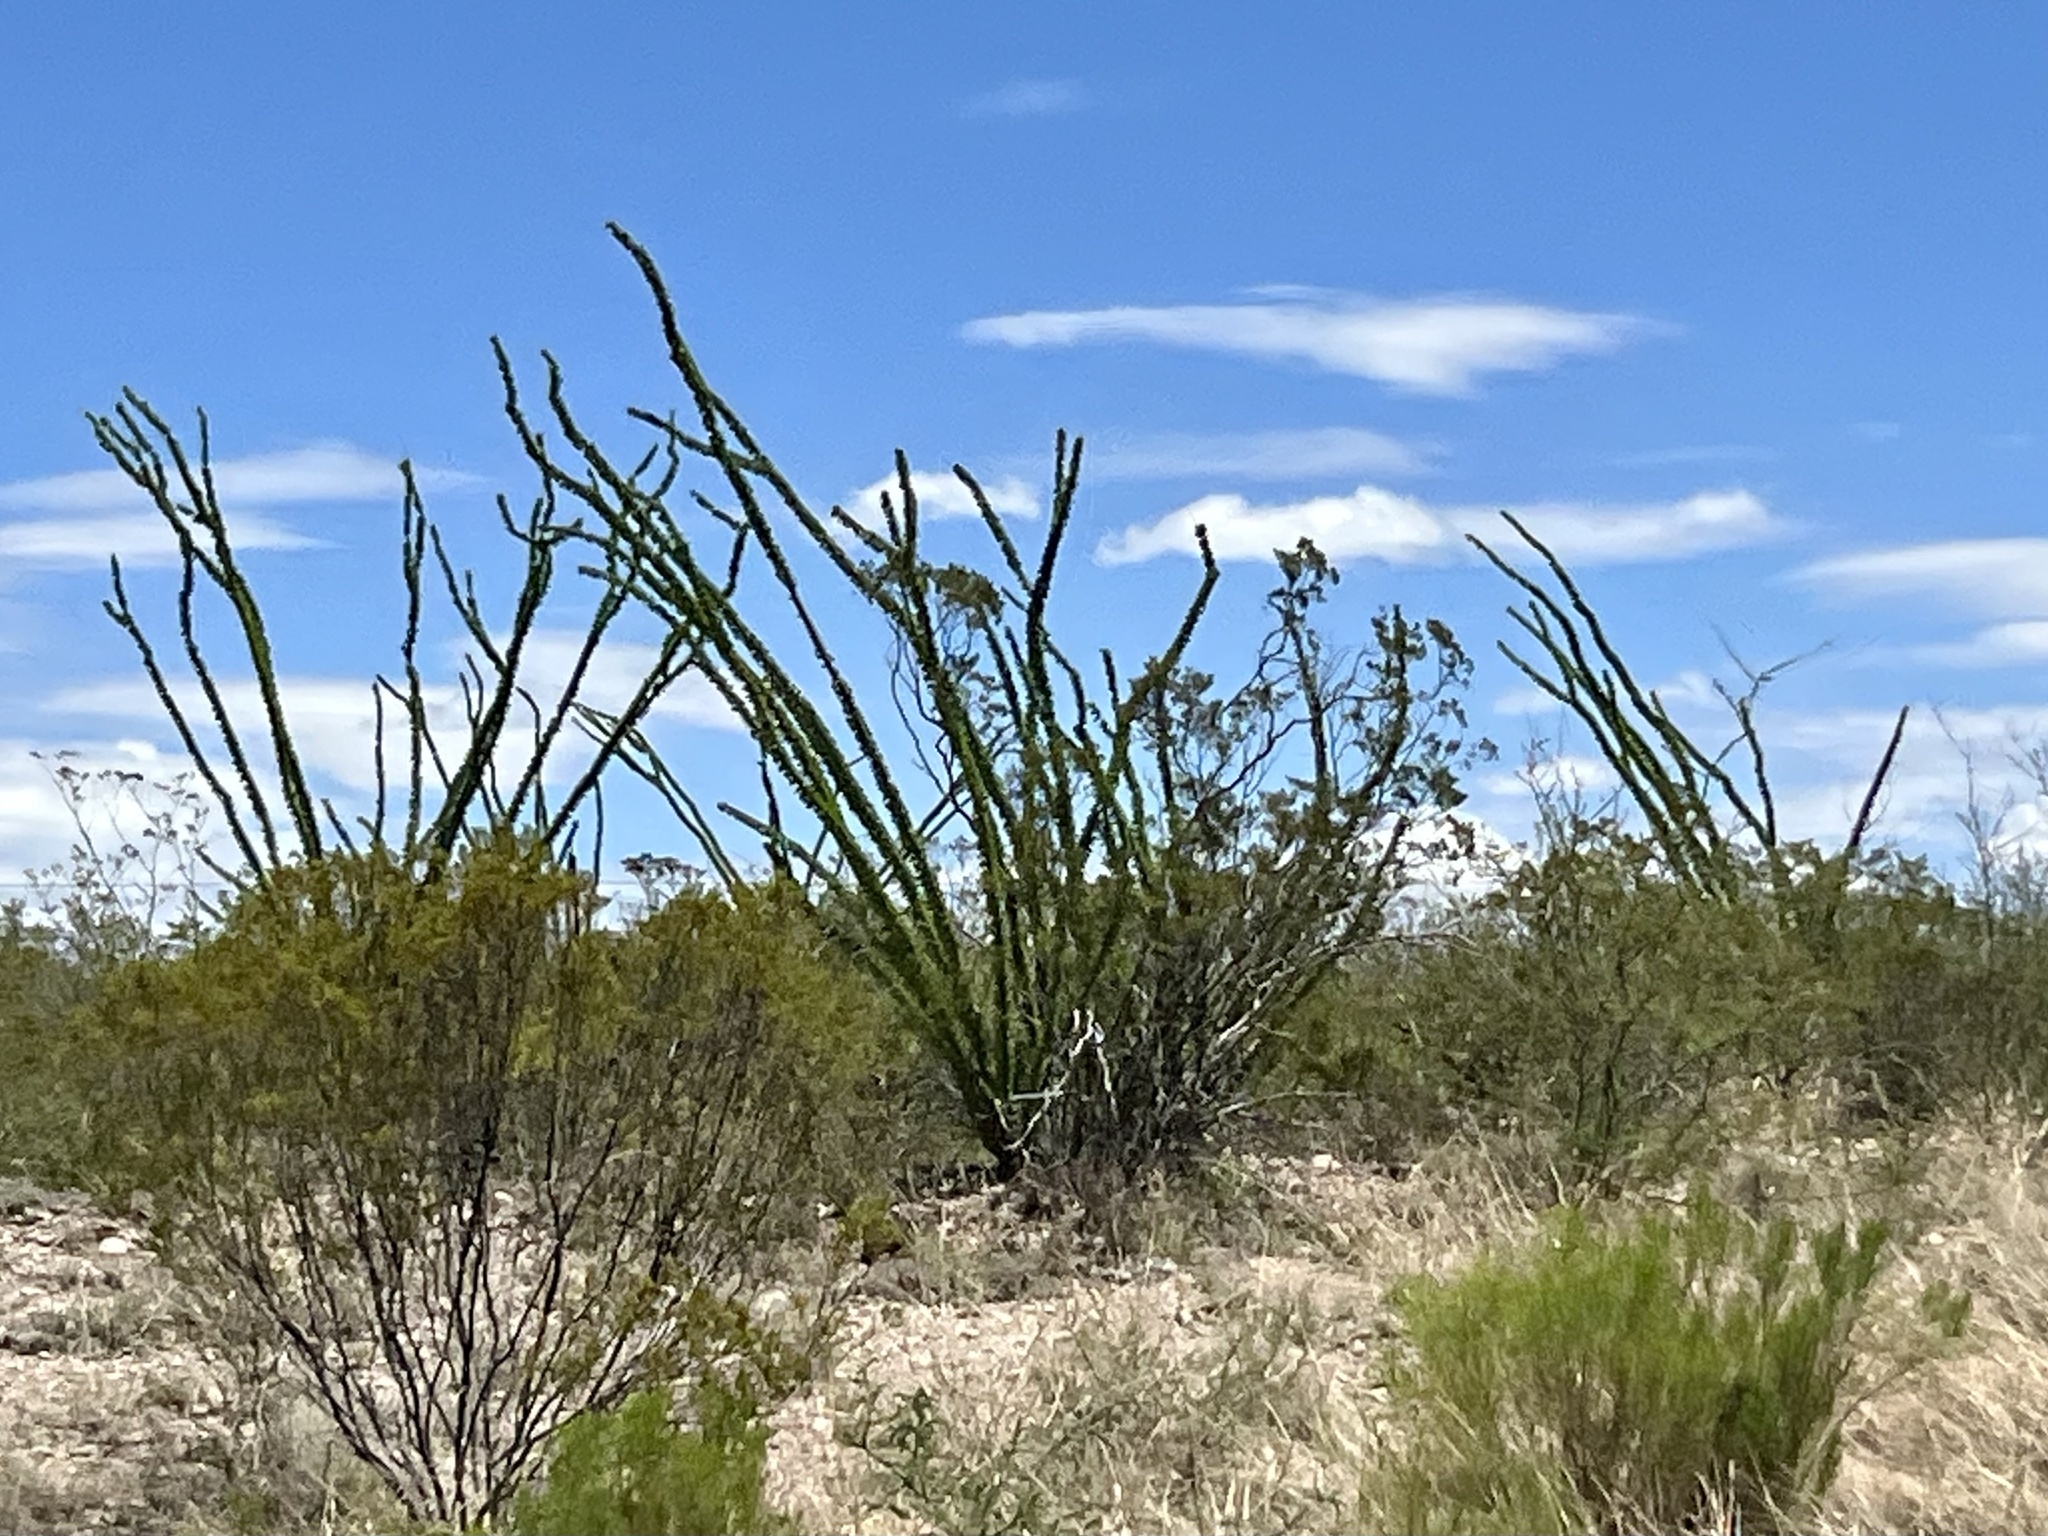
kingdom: Plantae
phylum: Tracheophyta
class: Magnoliopsida
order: Ericales
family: Fouquieriaceae
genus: Fouquieria
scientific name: Fouquieria splendens
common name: Vine-cactus
